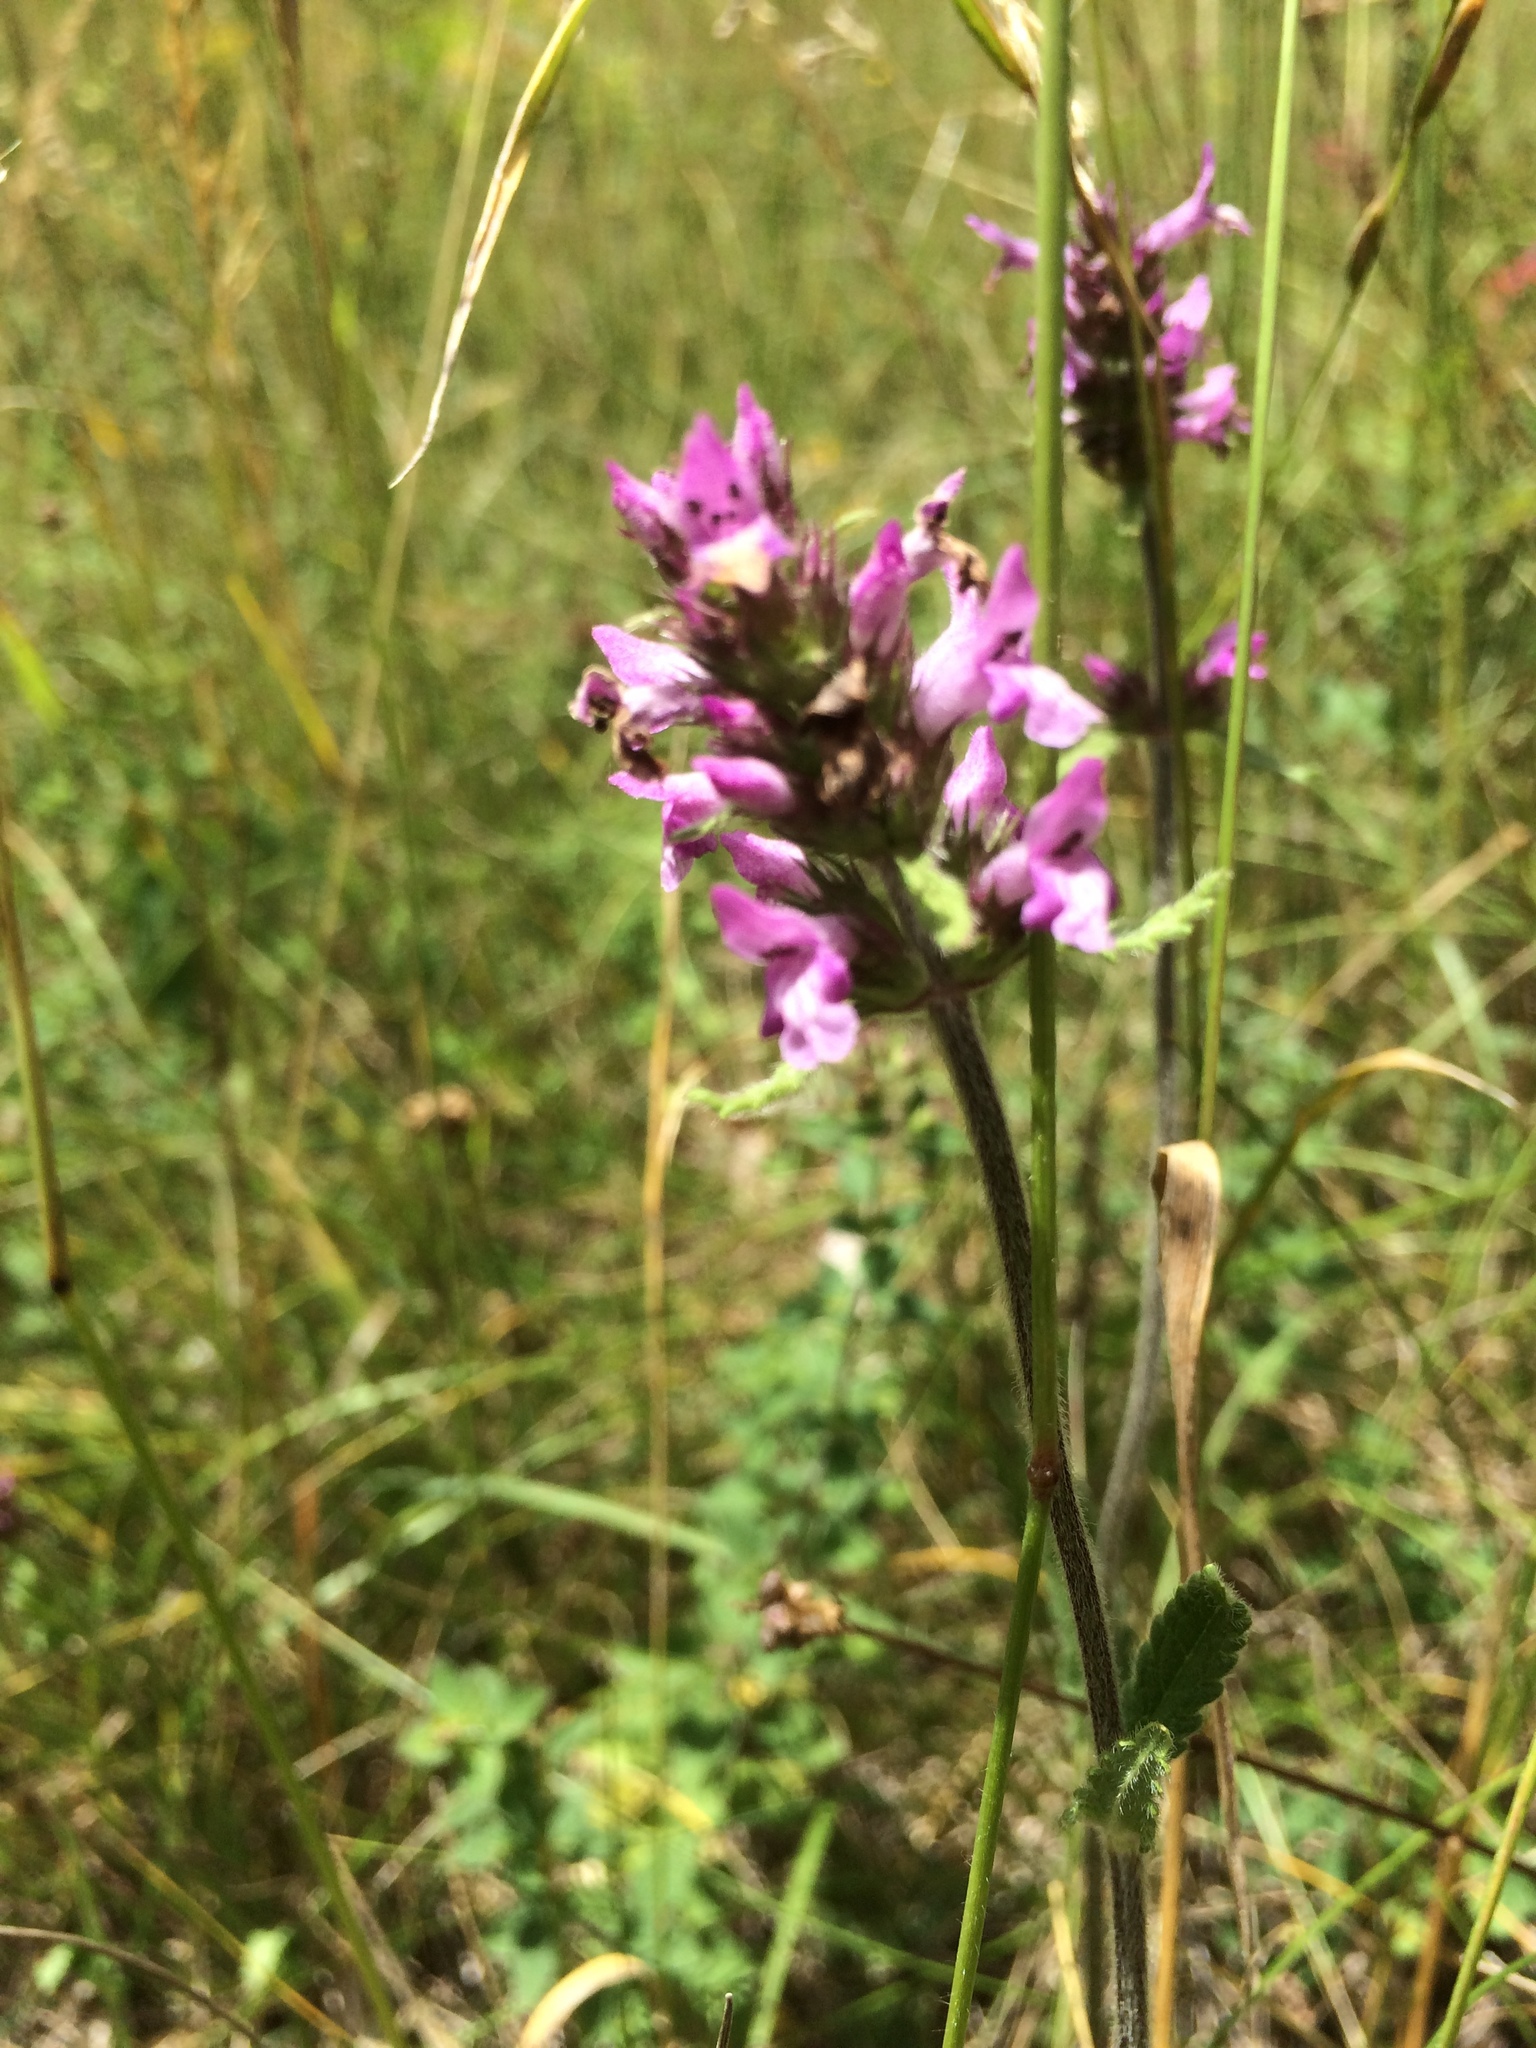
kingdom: Plantae
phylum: Tracheophyta
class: Magnoliopsida
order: Lamiales
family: Lamiaceae
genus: Betonica
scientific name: Betonica officinalis
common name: Bishop's-wort
